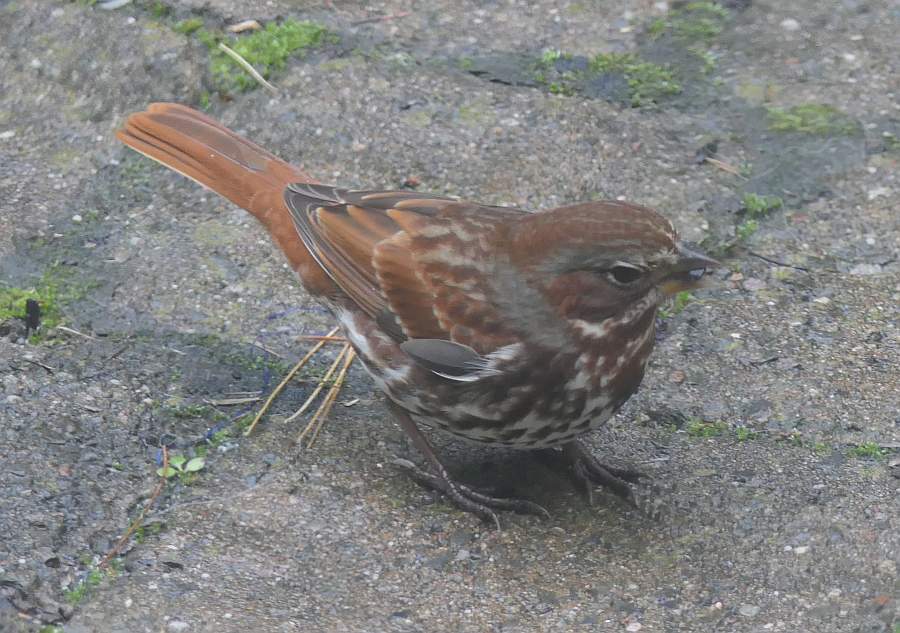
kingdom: Animalia
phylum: Chordata
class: Aves
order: Passeriformes
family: Passerellidae
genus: Passerella
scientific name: Passerella iliaca
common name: Fox sparrow
